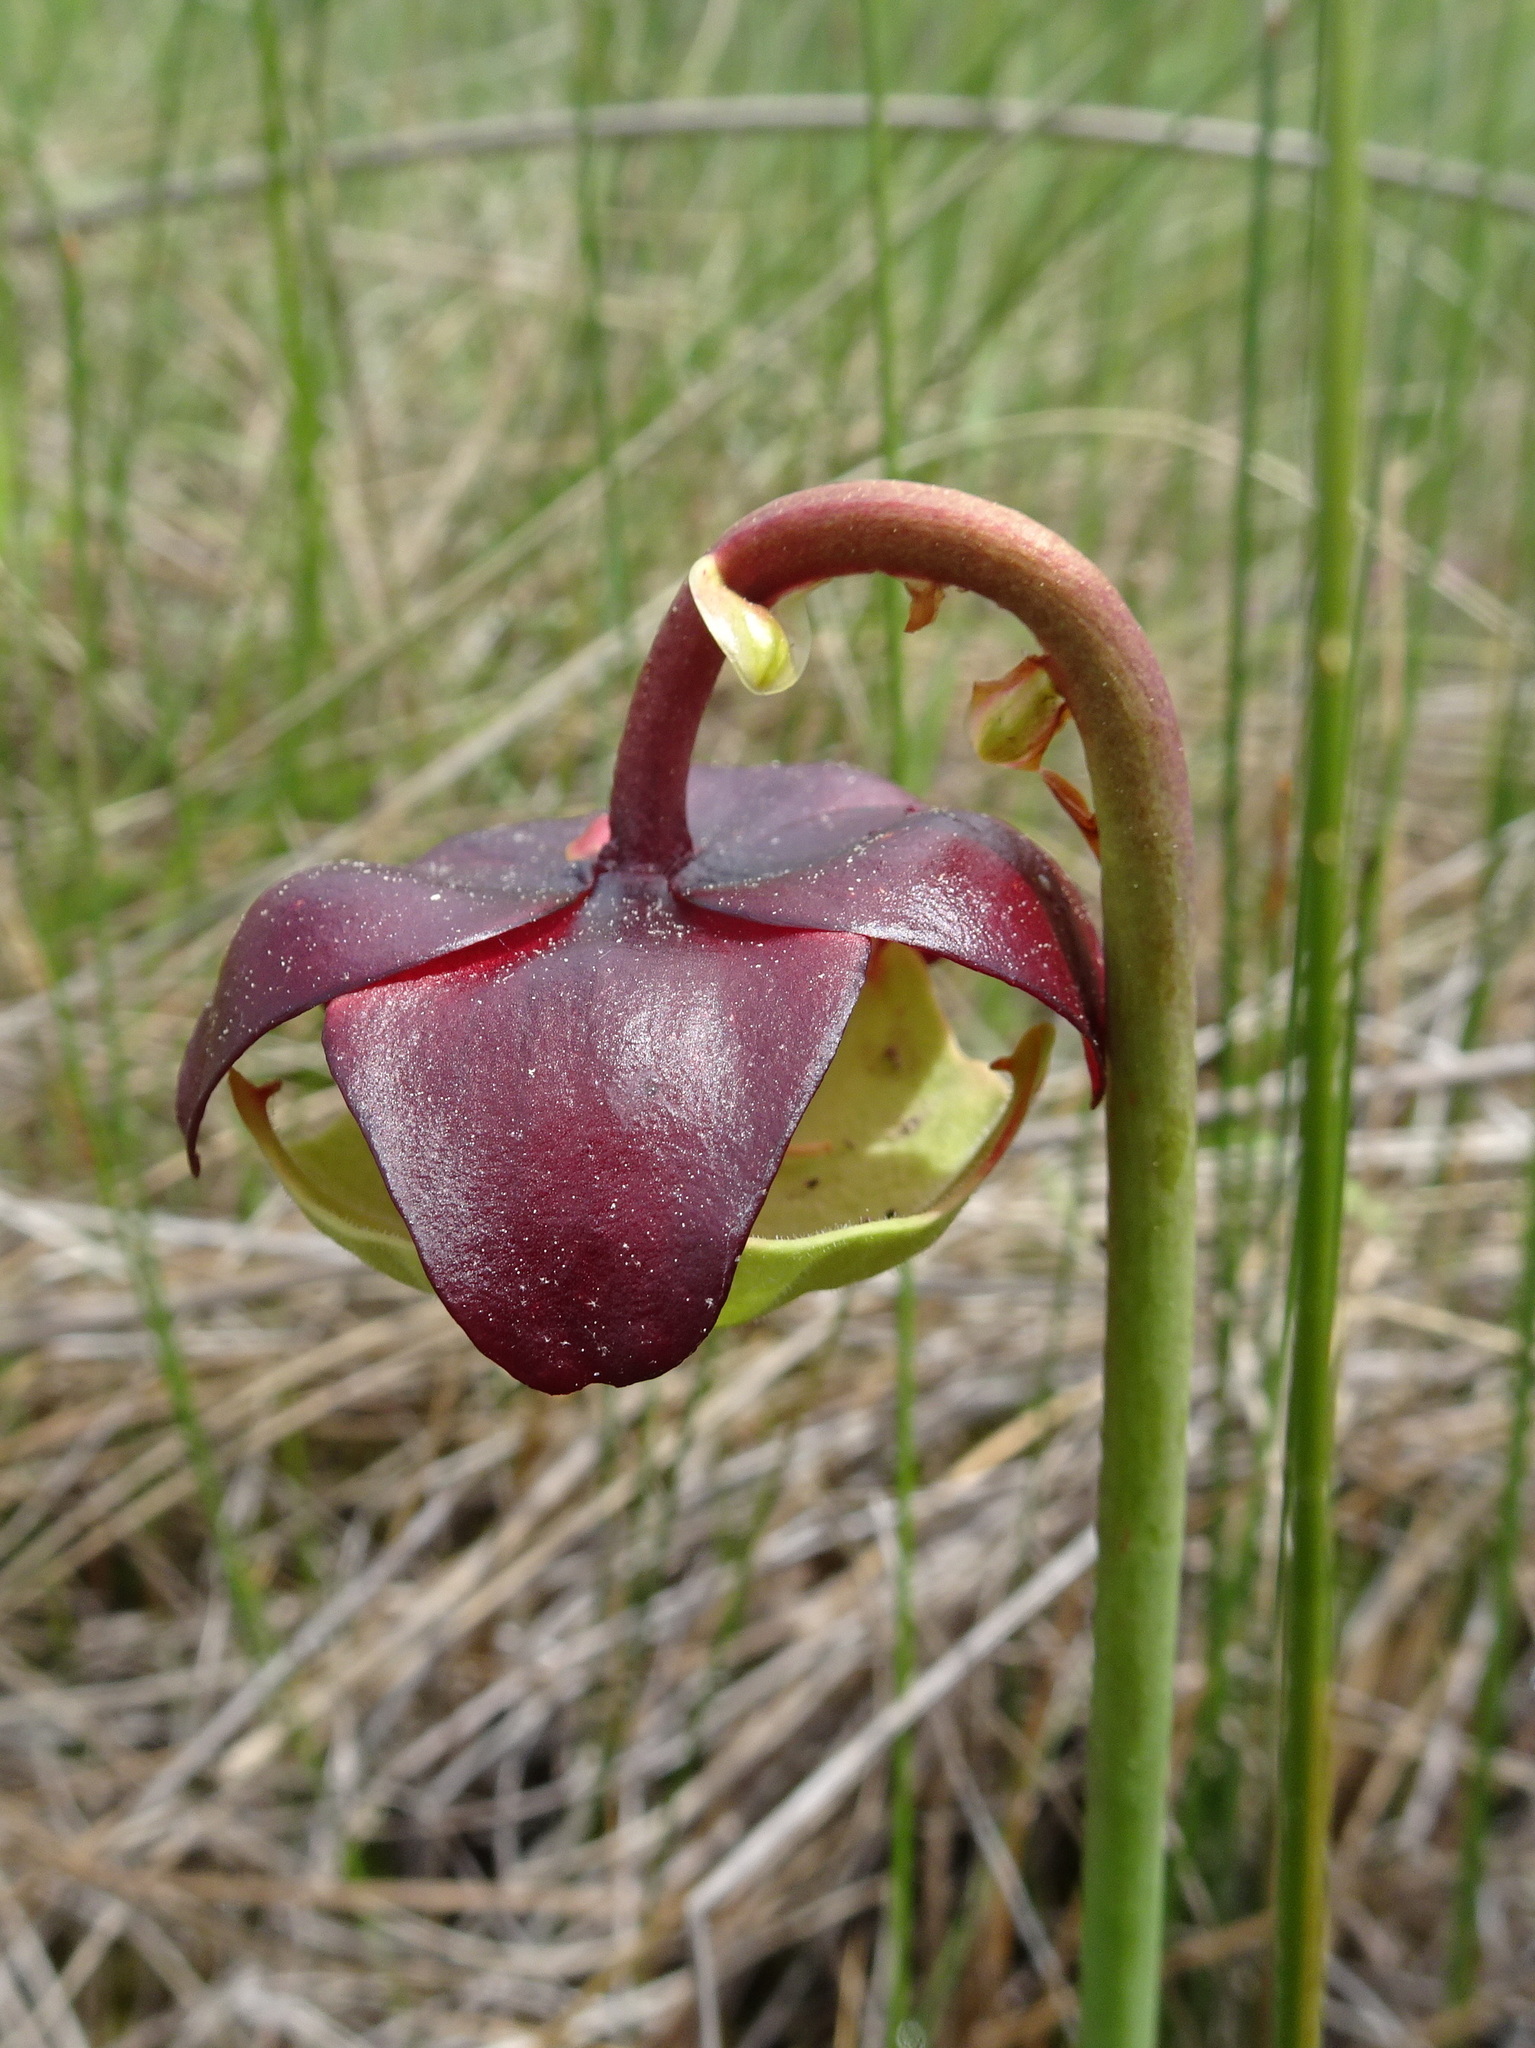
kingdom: Plantae
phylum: Tracheophyta
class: Magnoliopsida
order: Ericales
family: Sarraceniaceae
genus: Sarracenia
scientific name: Sarracenia purpurea
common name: Pitcherplant
